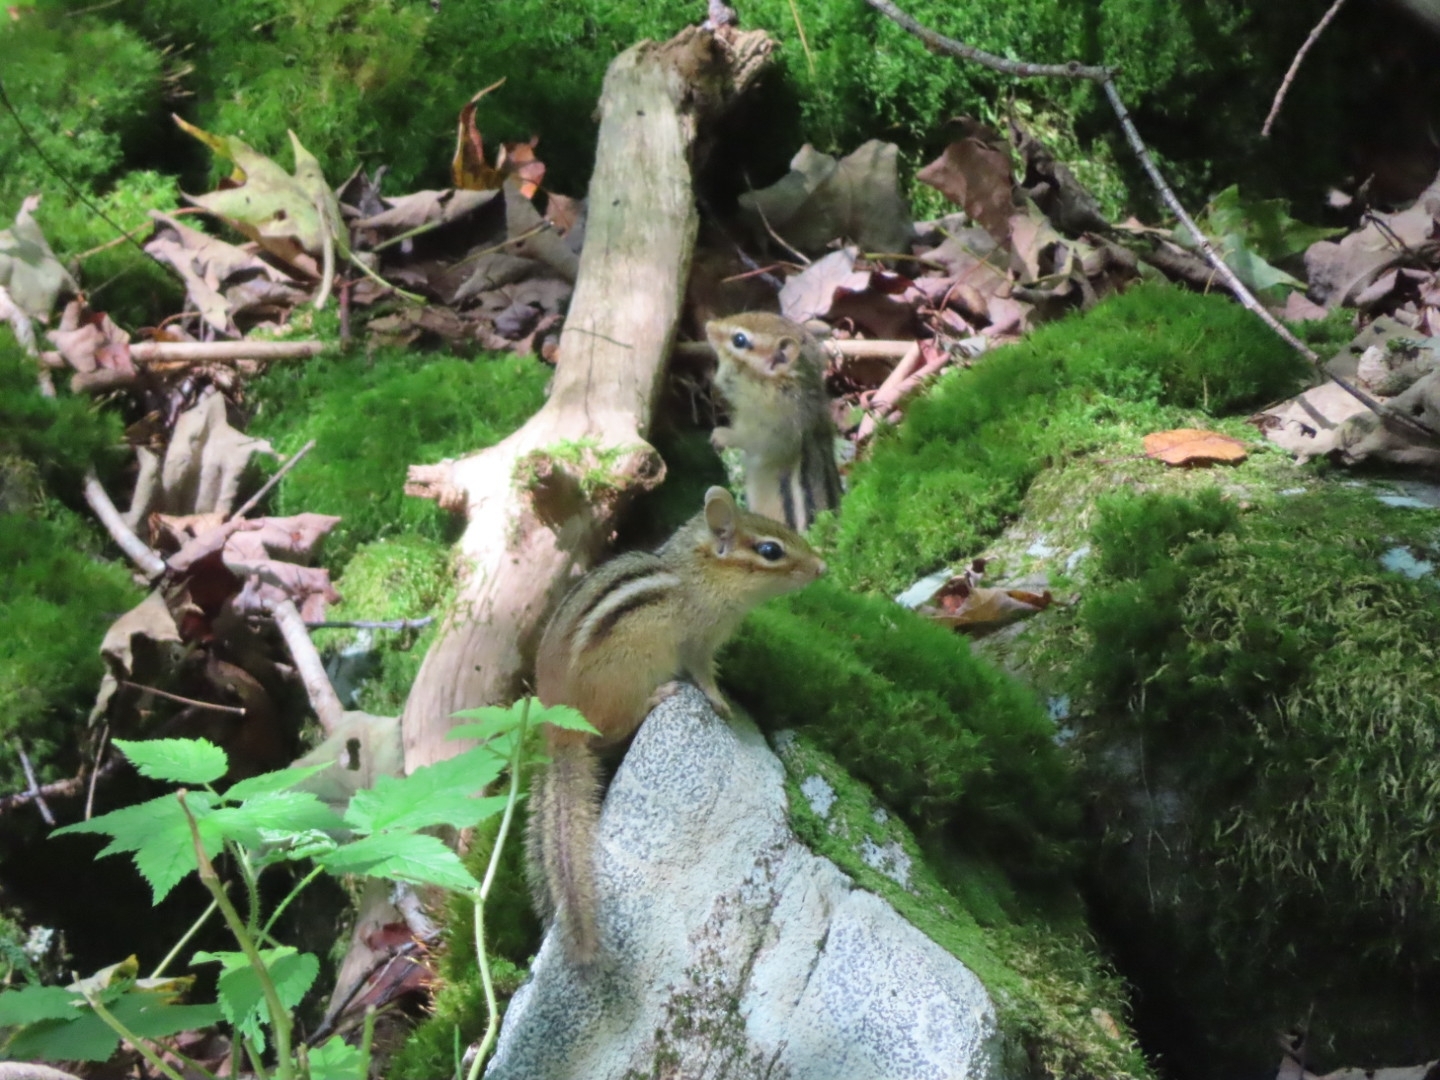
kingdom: Animalia
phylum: Chordata
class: Mammalia
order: Rodentia
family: Sciuridae
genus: Tamias
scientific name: Tamias striatus
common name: Eastern chipmunk
